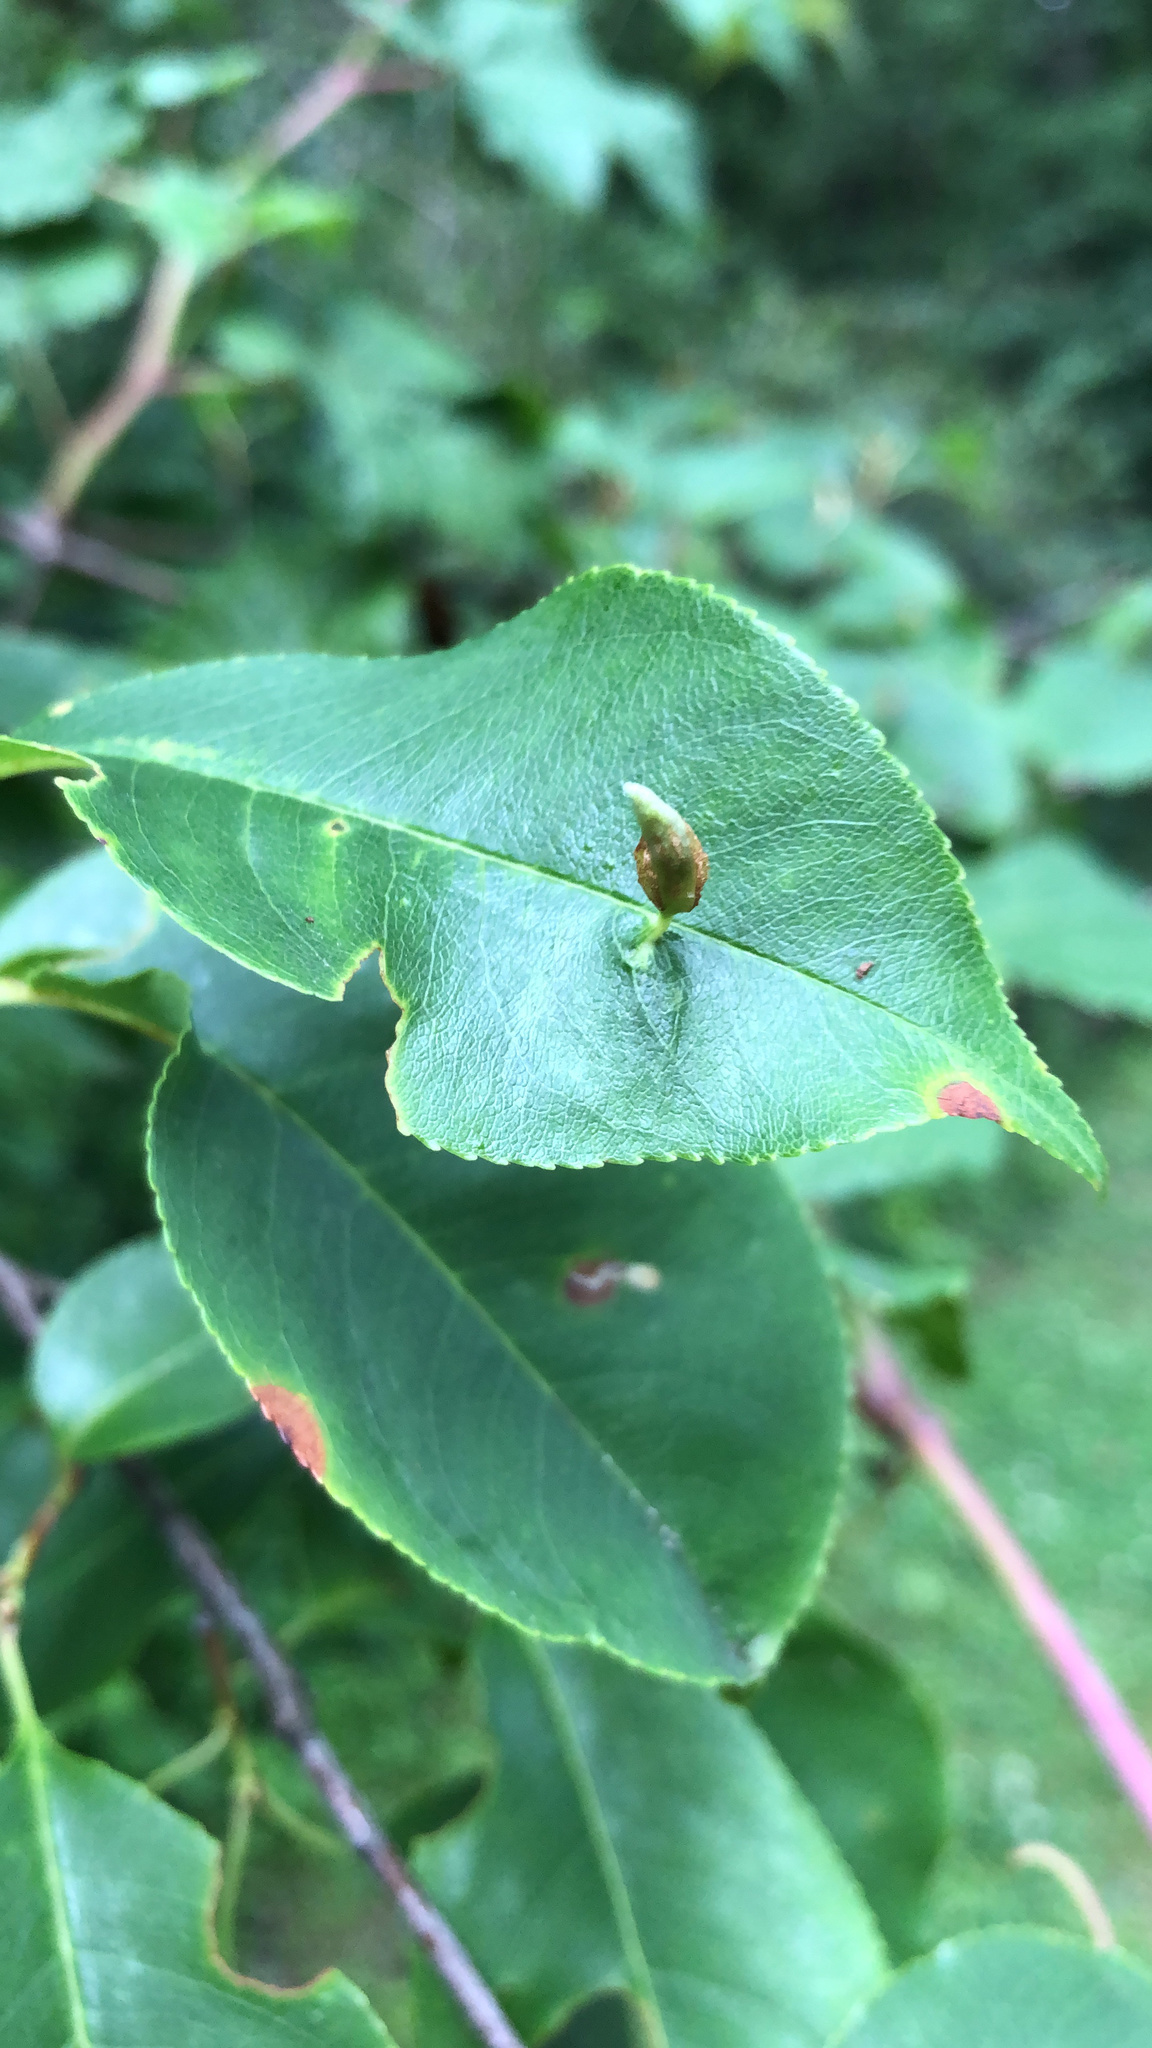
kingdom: Animalia
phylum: Arthropoda
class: Arachnida
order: Trombidiformes
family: Eriophyidae
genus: Eriophyes
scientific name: Eriophyes
